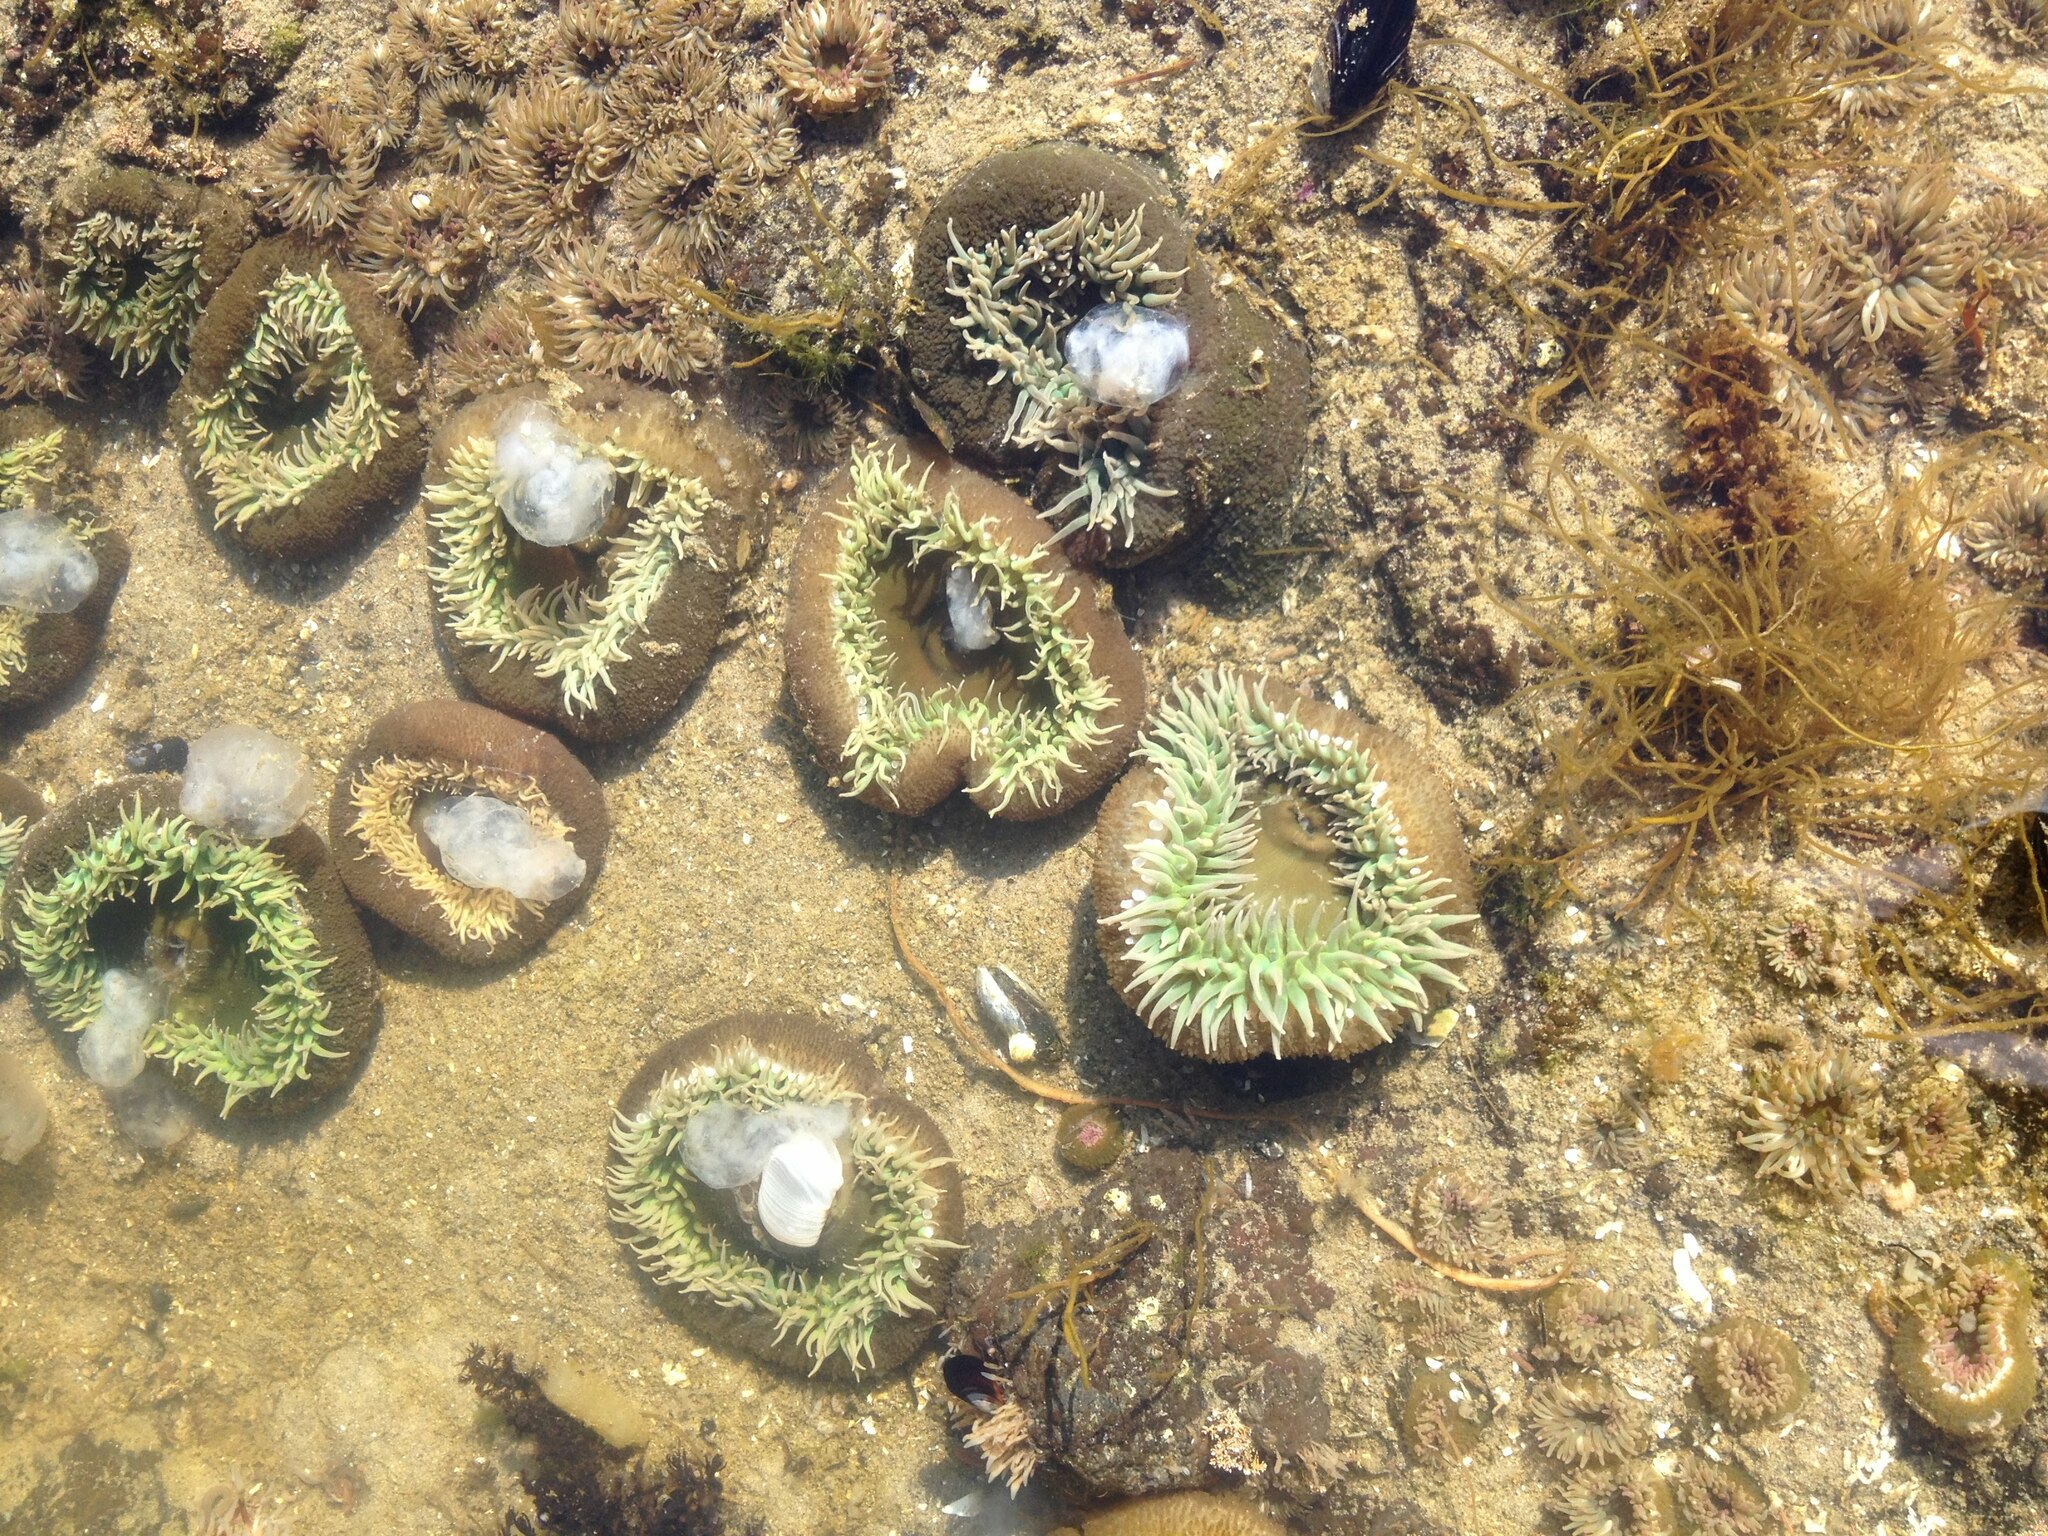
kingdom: Animalia
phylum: Cnidaria
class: Anthozoa
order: Actiniaria
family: Actiniidae
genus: Anthopleura
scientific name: Anthopleura xanthogrammica
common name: Giant green anemone
